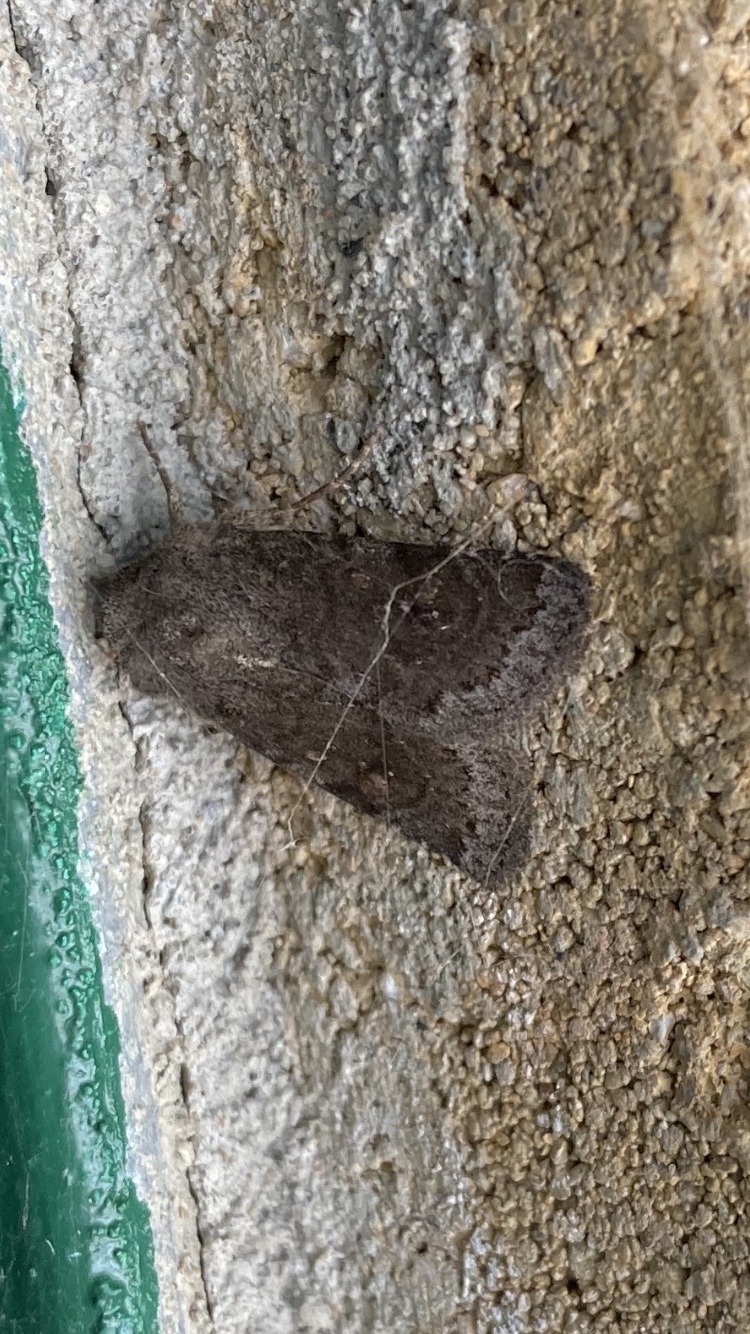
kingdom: Animalia
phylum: Arthropoda
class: Insecta
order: Lepidoptera
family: Noctuidae
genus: Ulolonche
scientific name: Ulolonche modesta
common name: Modest quaker
